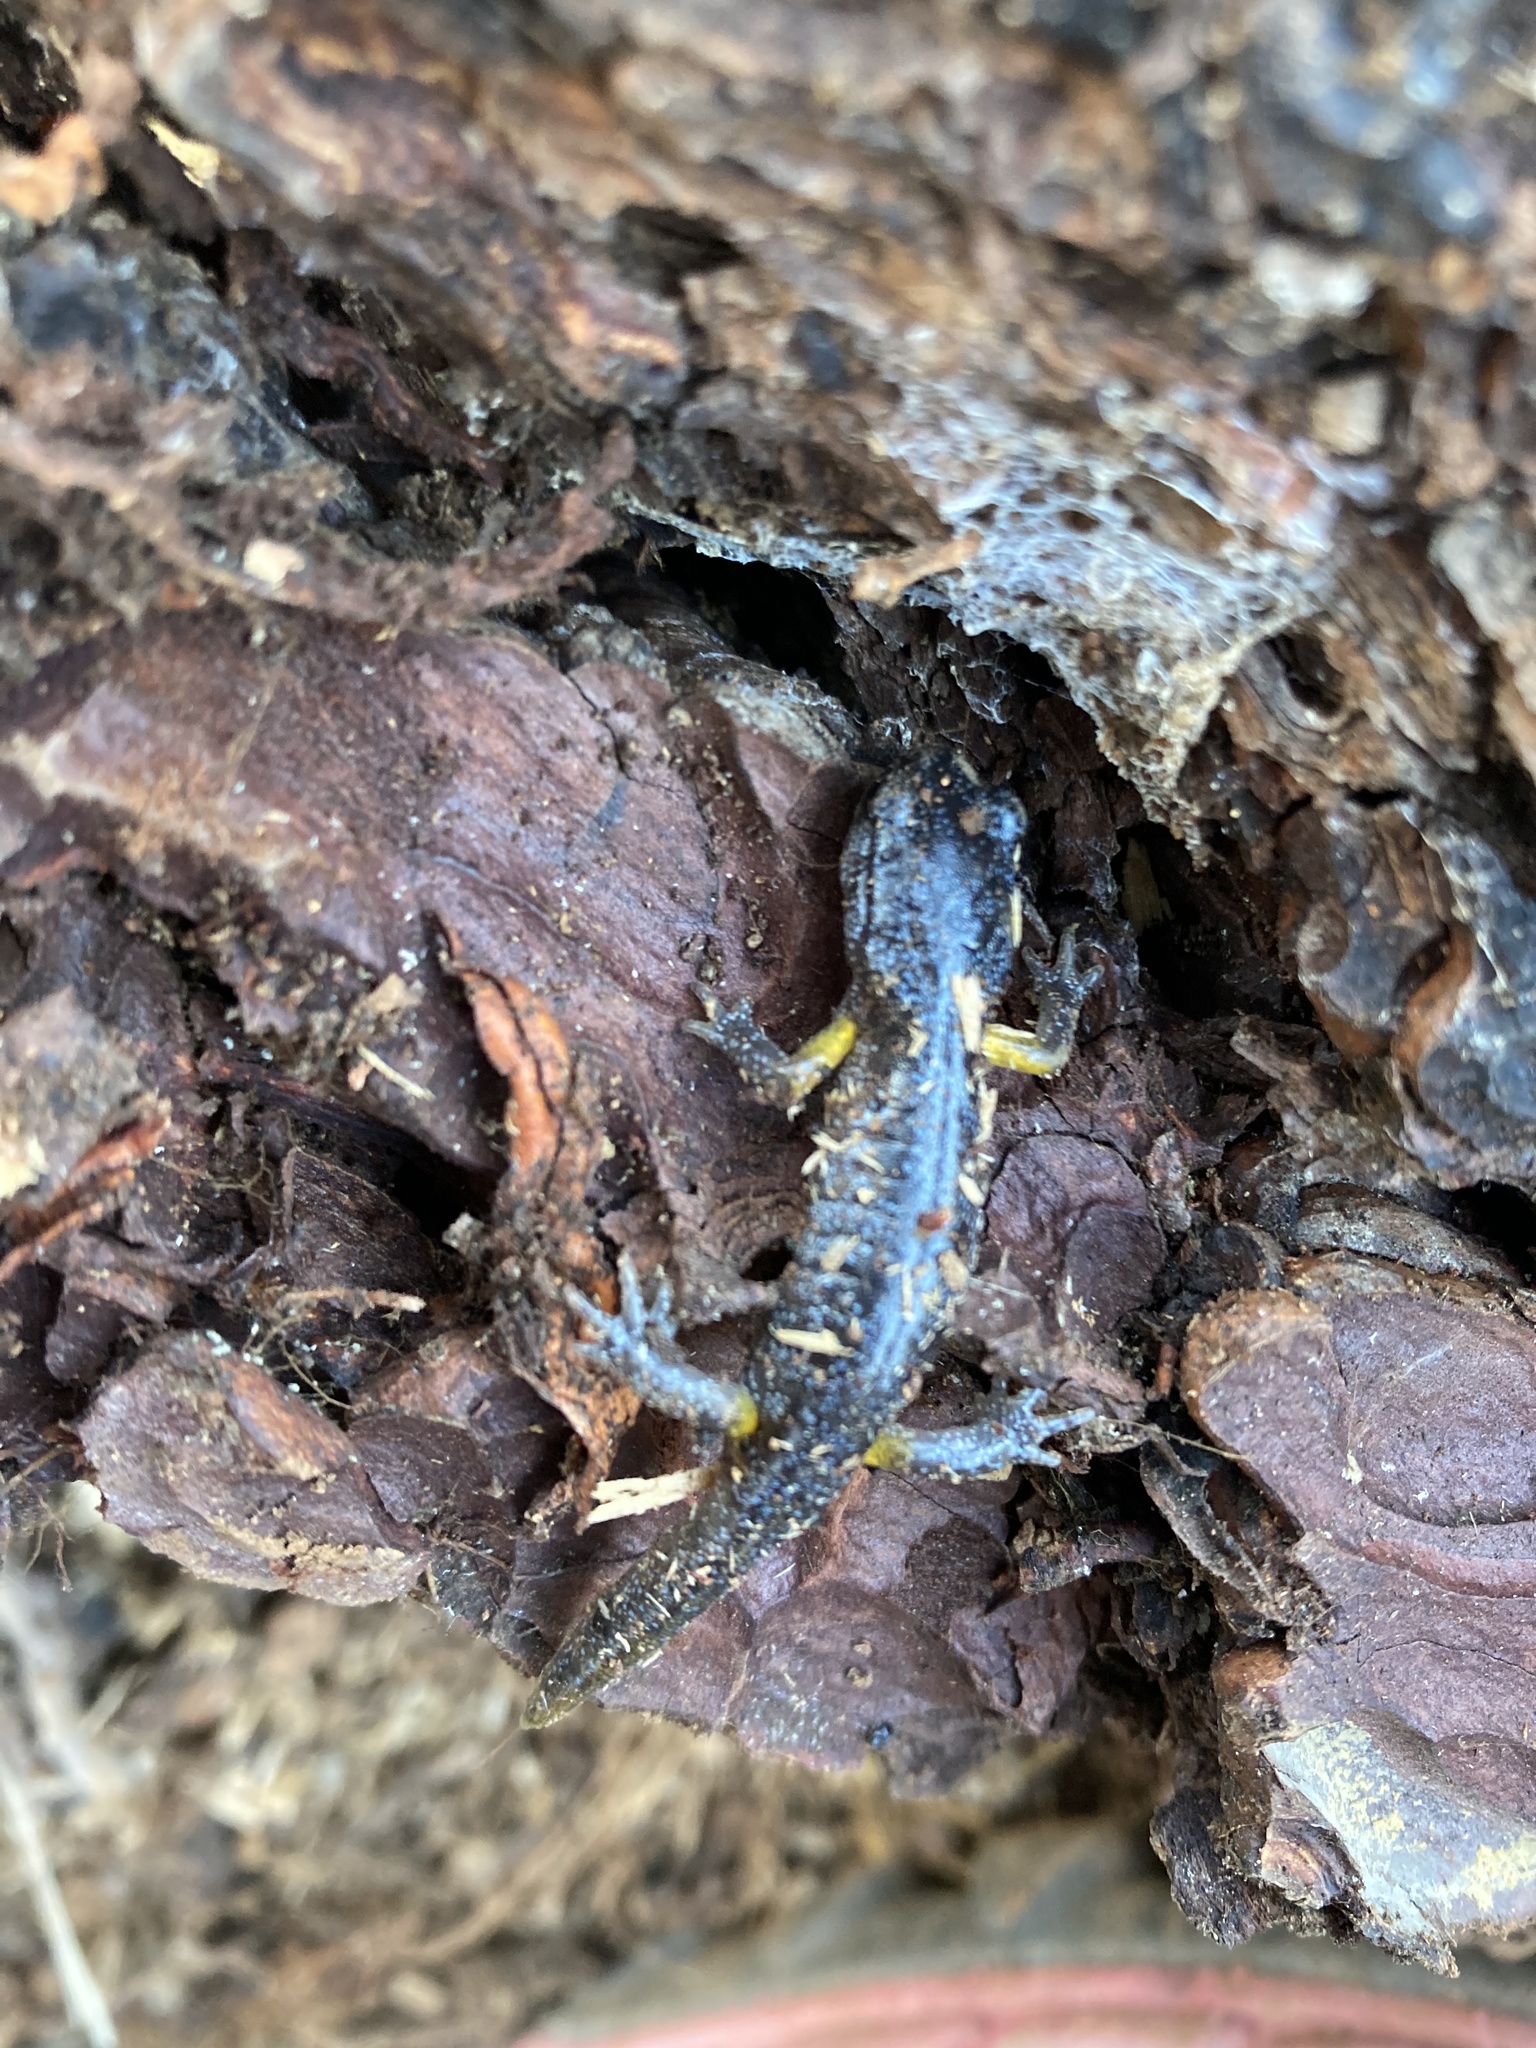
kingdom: Animalia
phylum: Chordata
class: Amphibia
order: Caudata
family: Plethodontidae
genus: Ensatina
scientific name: Ensatina eschscholtzii
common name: Ensatina
